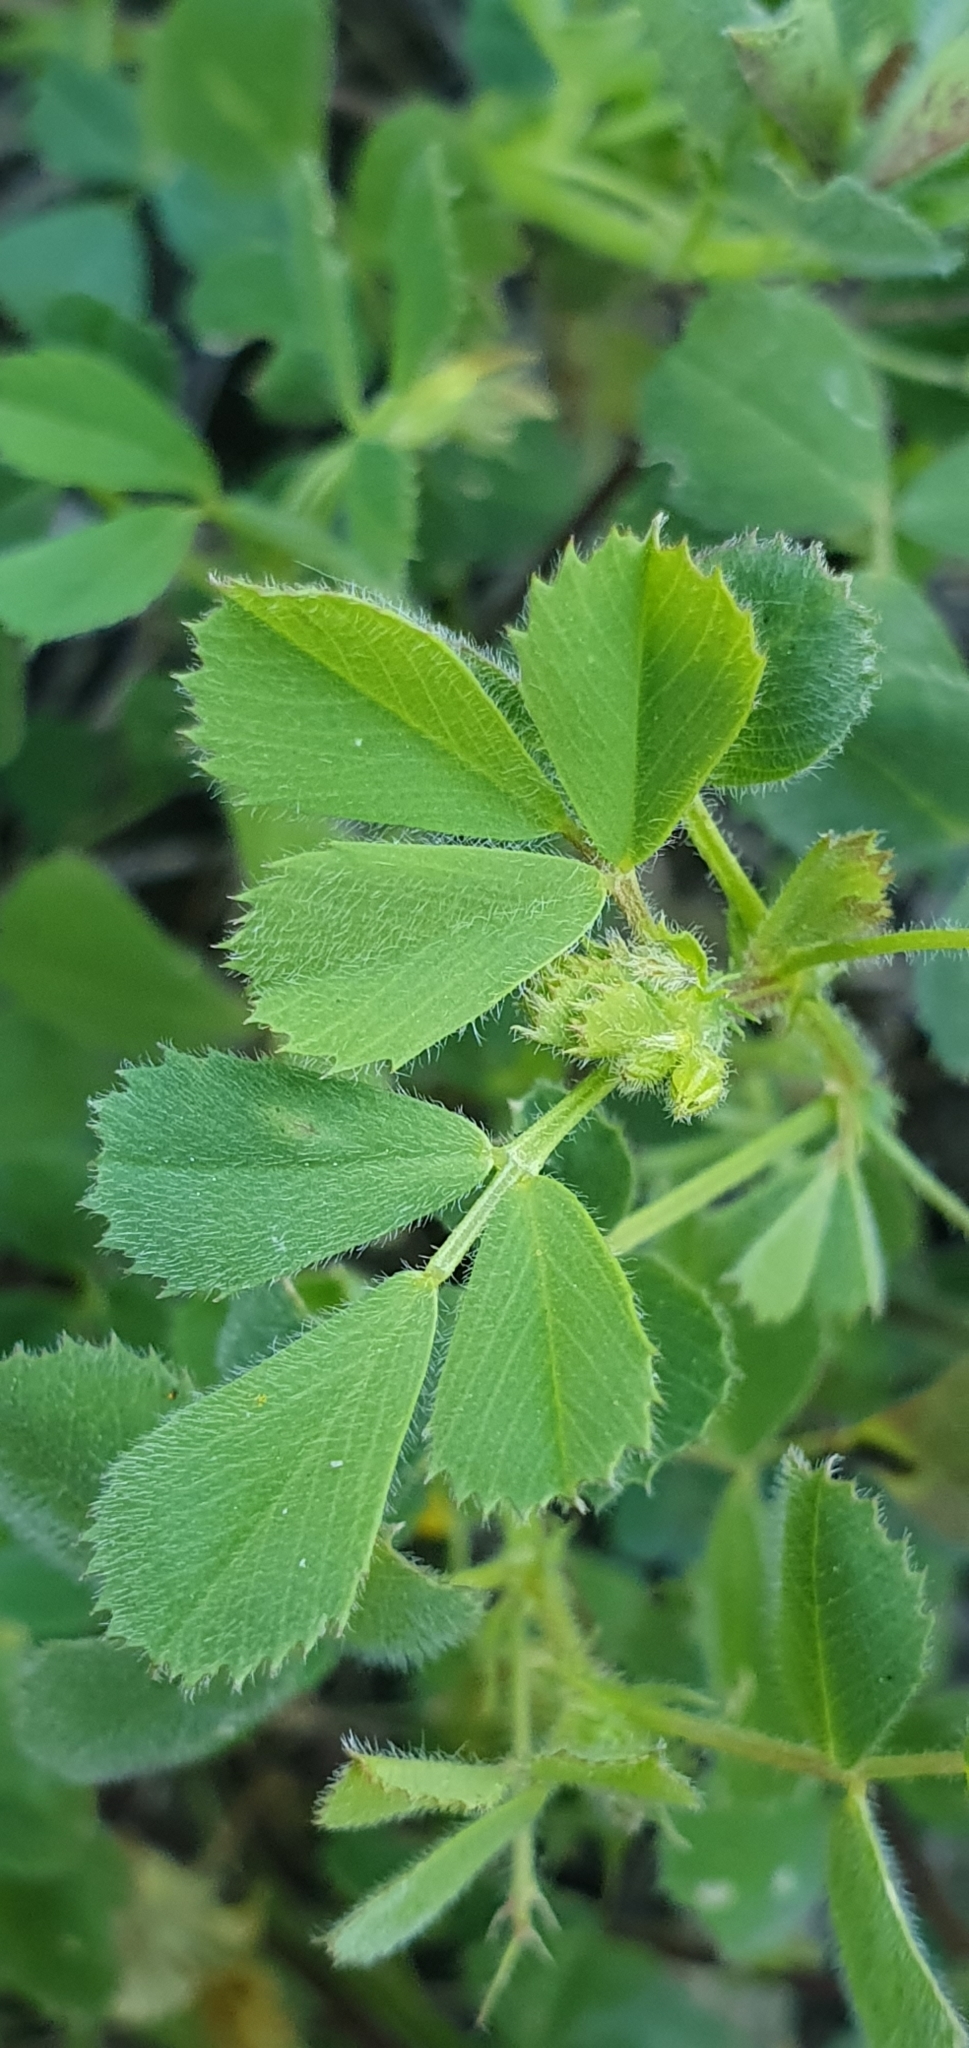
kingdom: Plantae
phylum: Tracheophyta
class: Magnoliopsida
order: Fabales
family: Fabaceae
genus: Medicago
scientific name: Medicago truncatula
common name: Strong-spined medick
